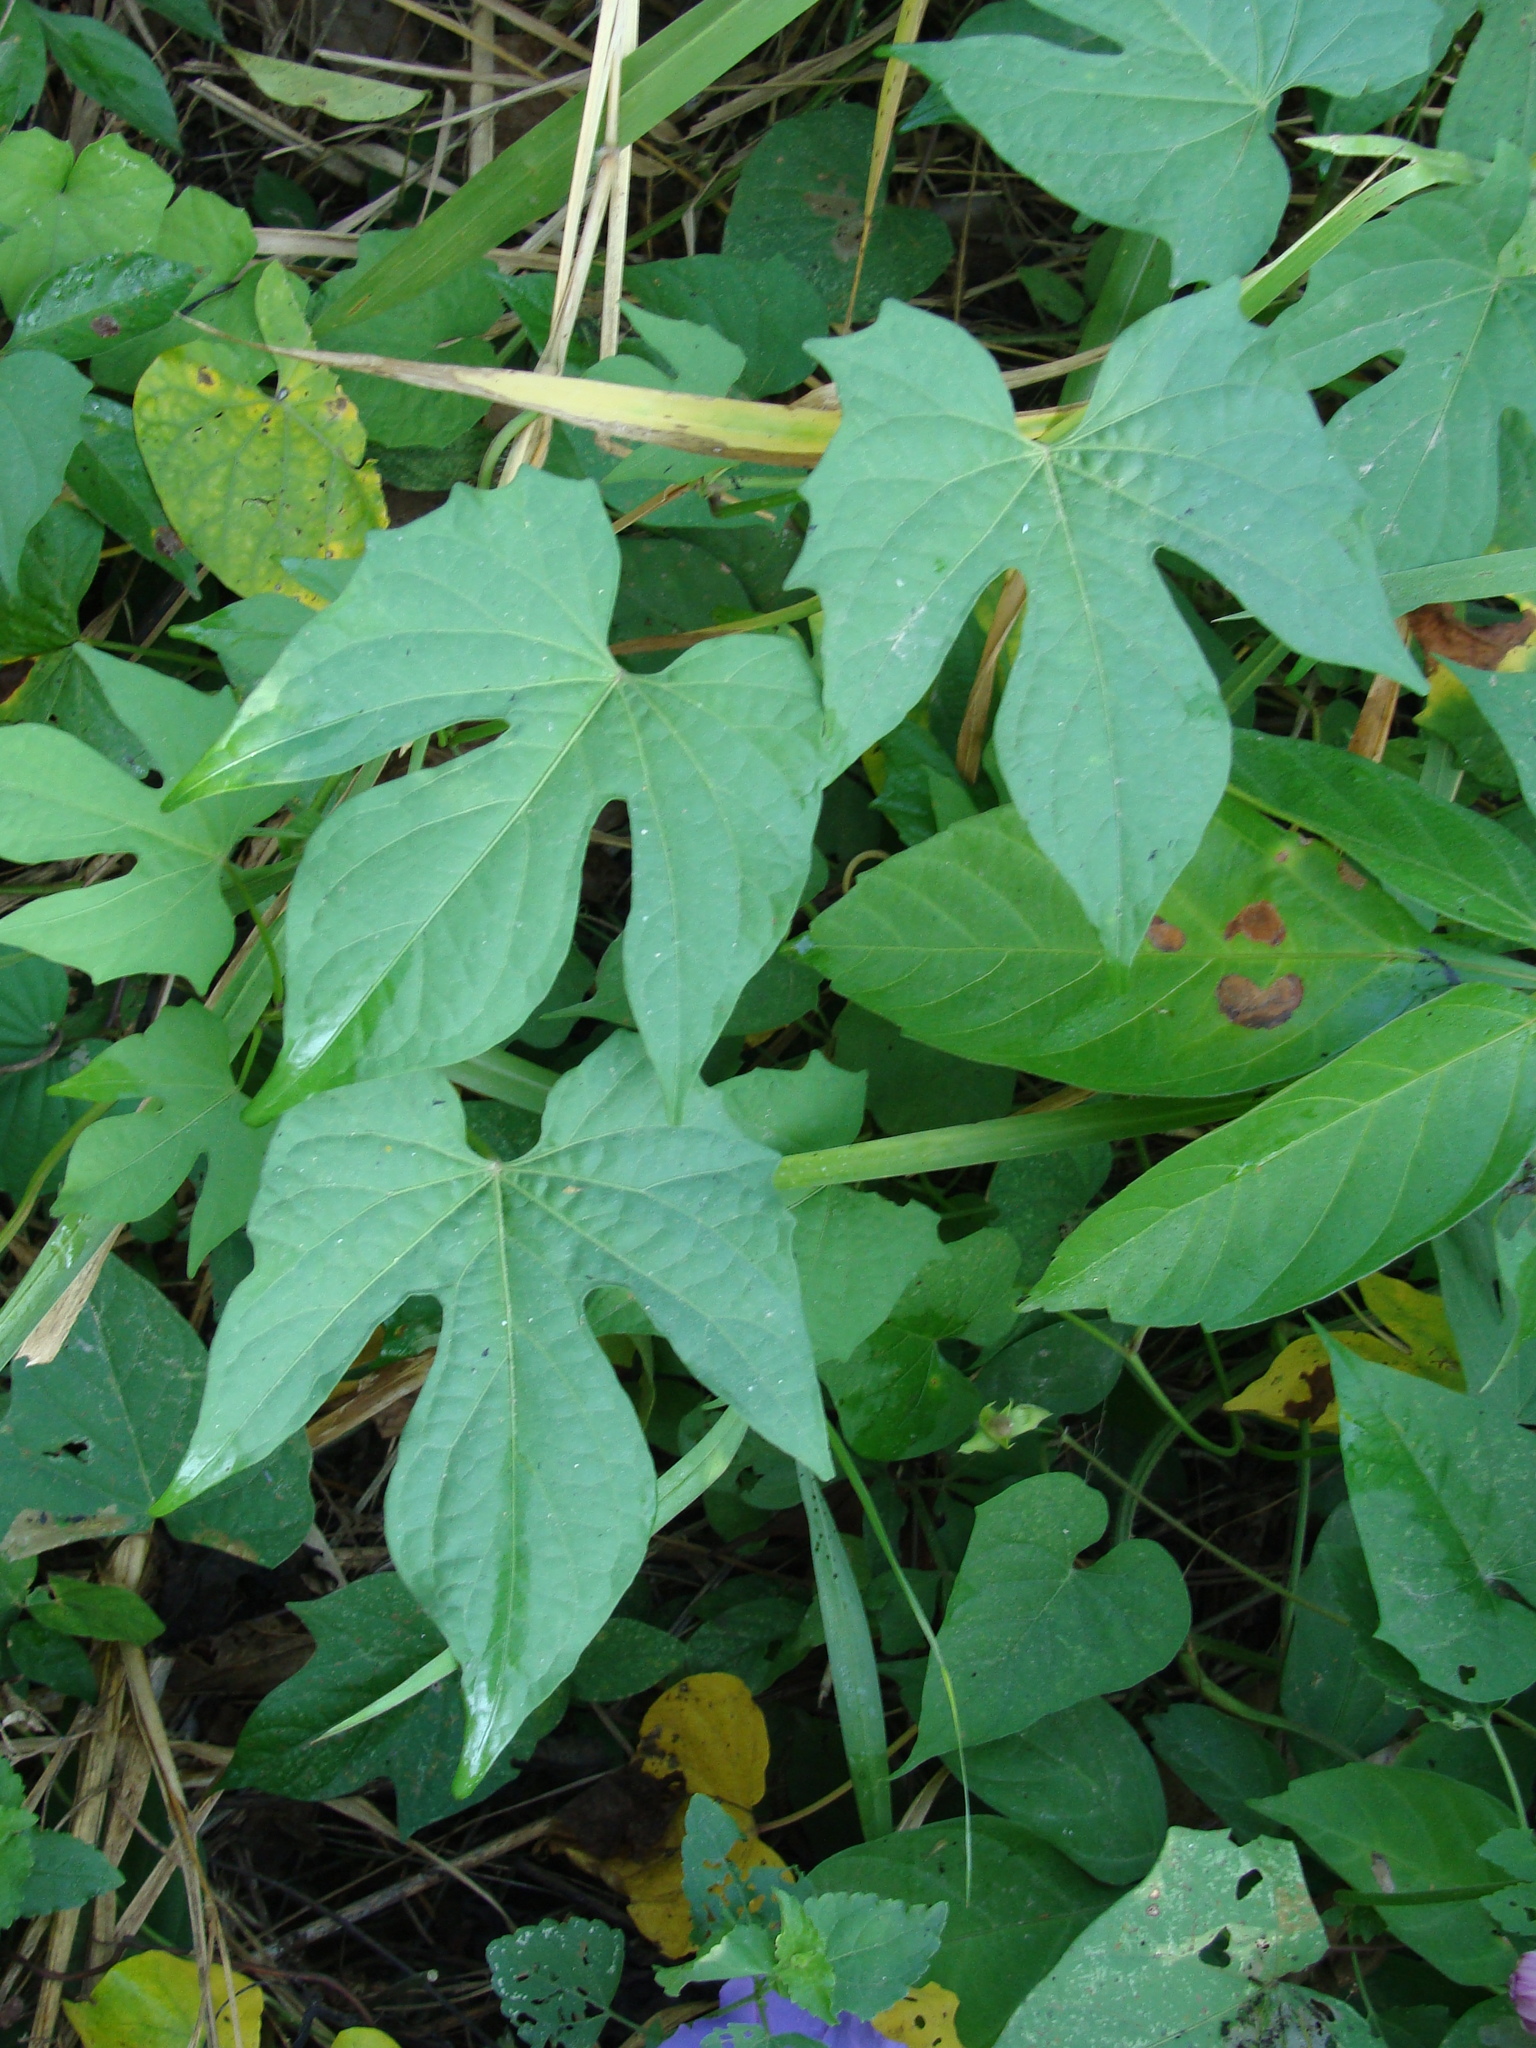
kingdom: Plantae
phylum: Tracheophyta
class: Magnoliopsida
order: Solanales
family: Convolvulaceae
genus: Ipomoea
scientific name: Ipomoea neei
